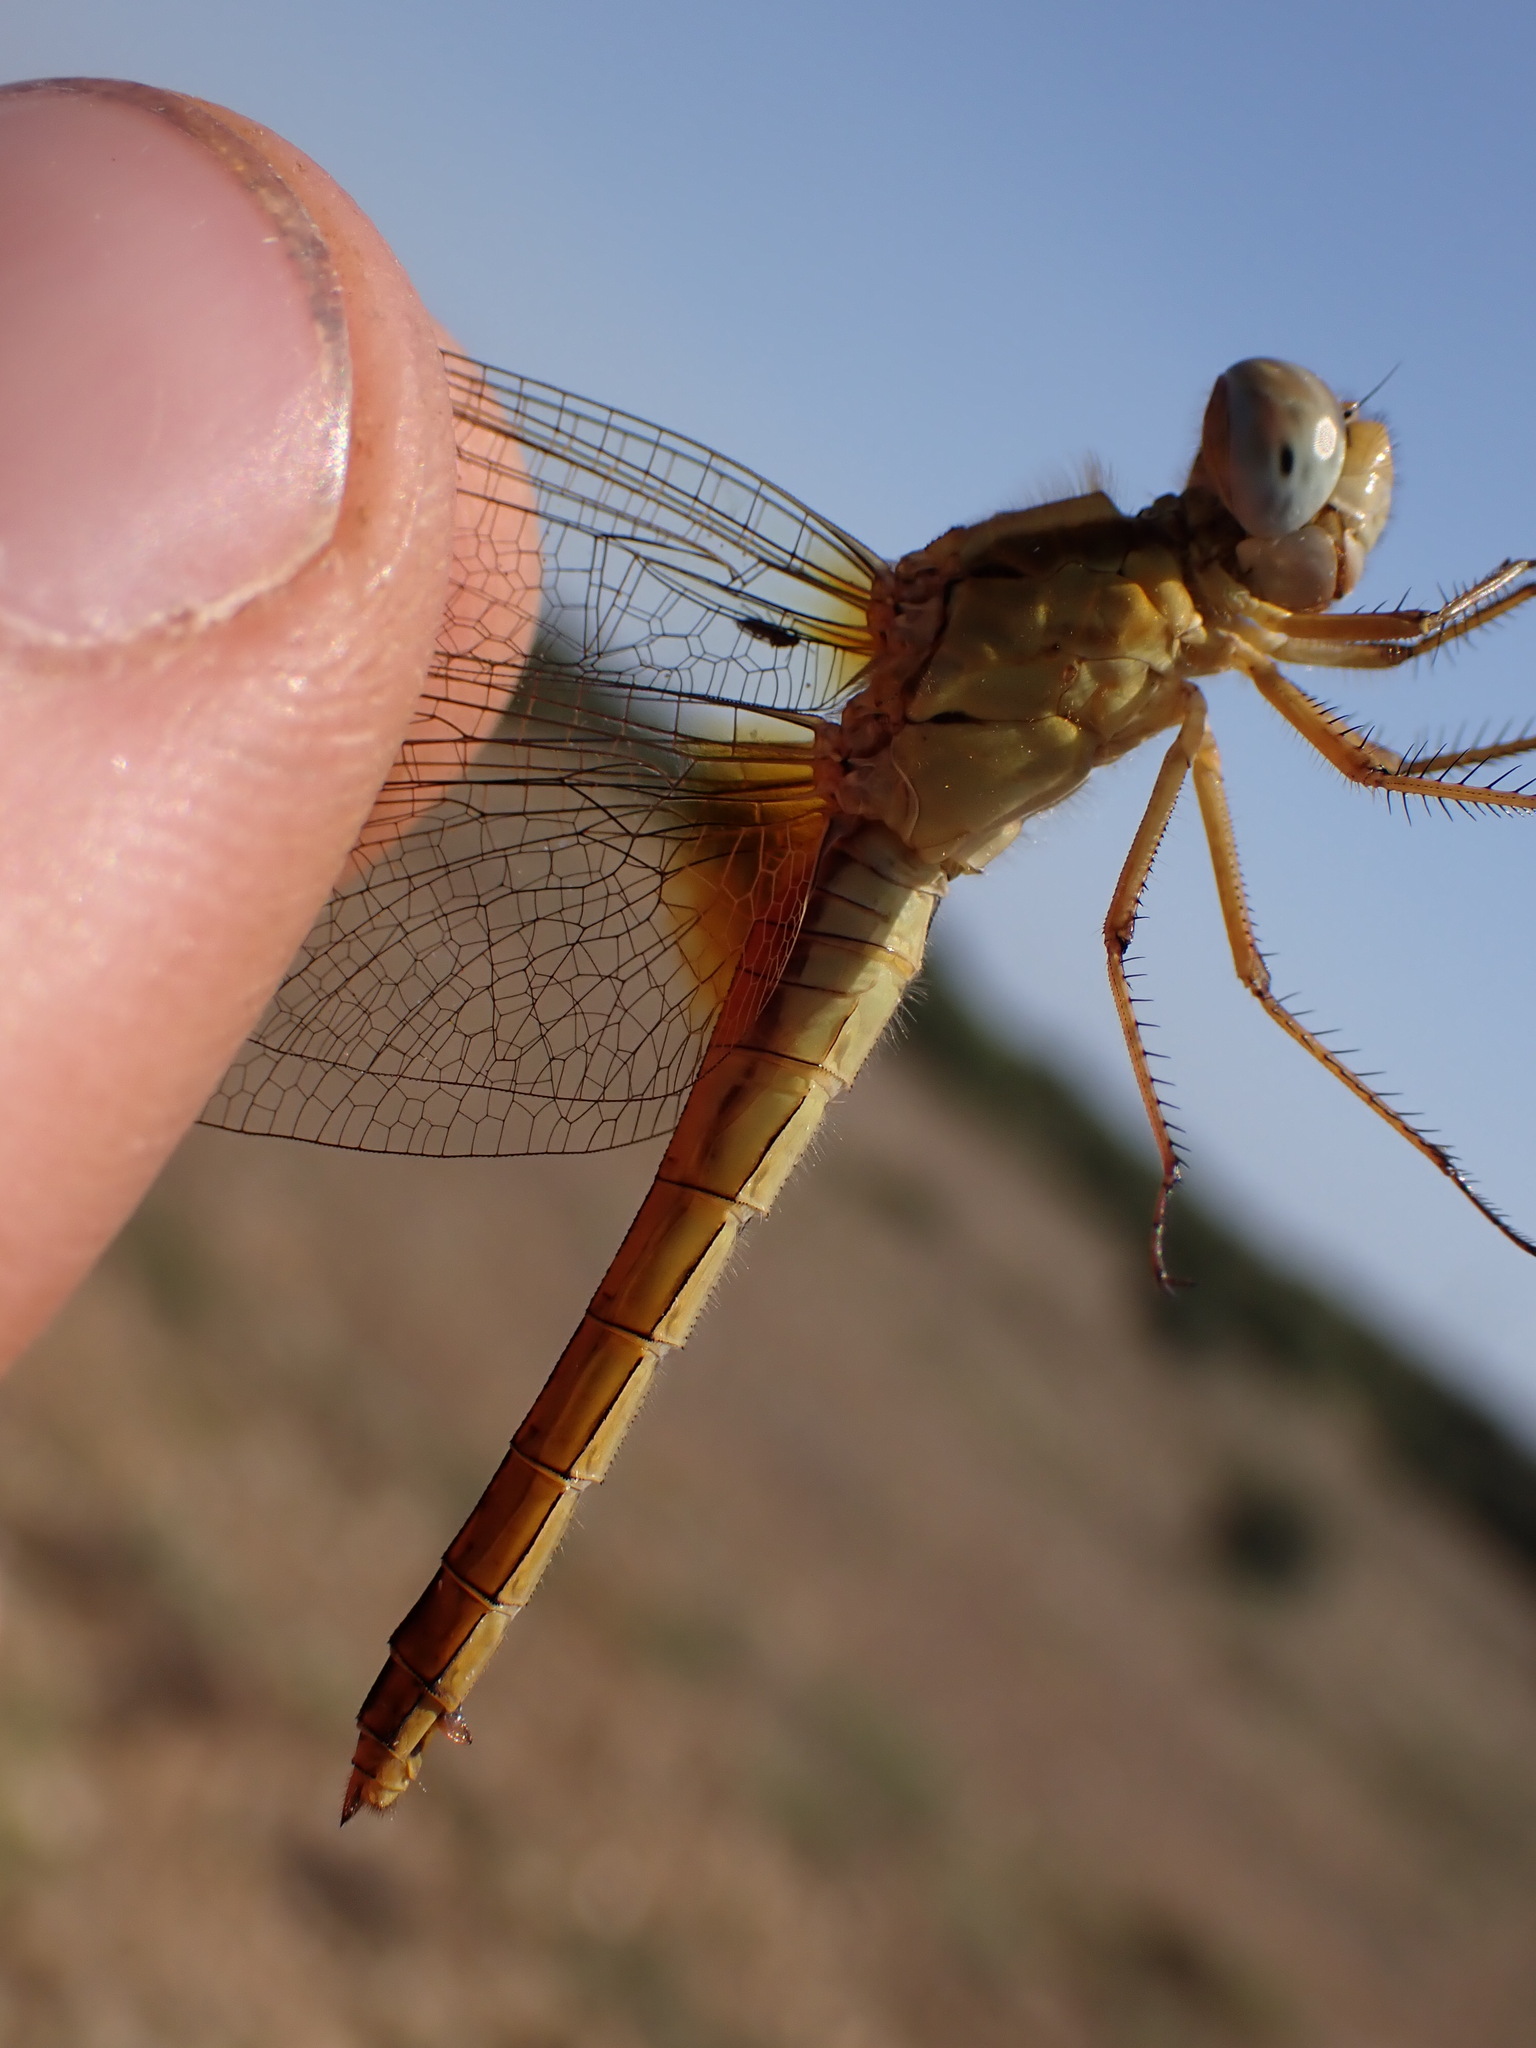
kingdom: Animalia
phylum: Arthropoda
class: Insecta
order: Odonata
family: Libellulidae
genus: Crocothemis
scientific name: Crocothemis erythraea
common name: Scarlet dragonfly
